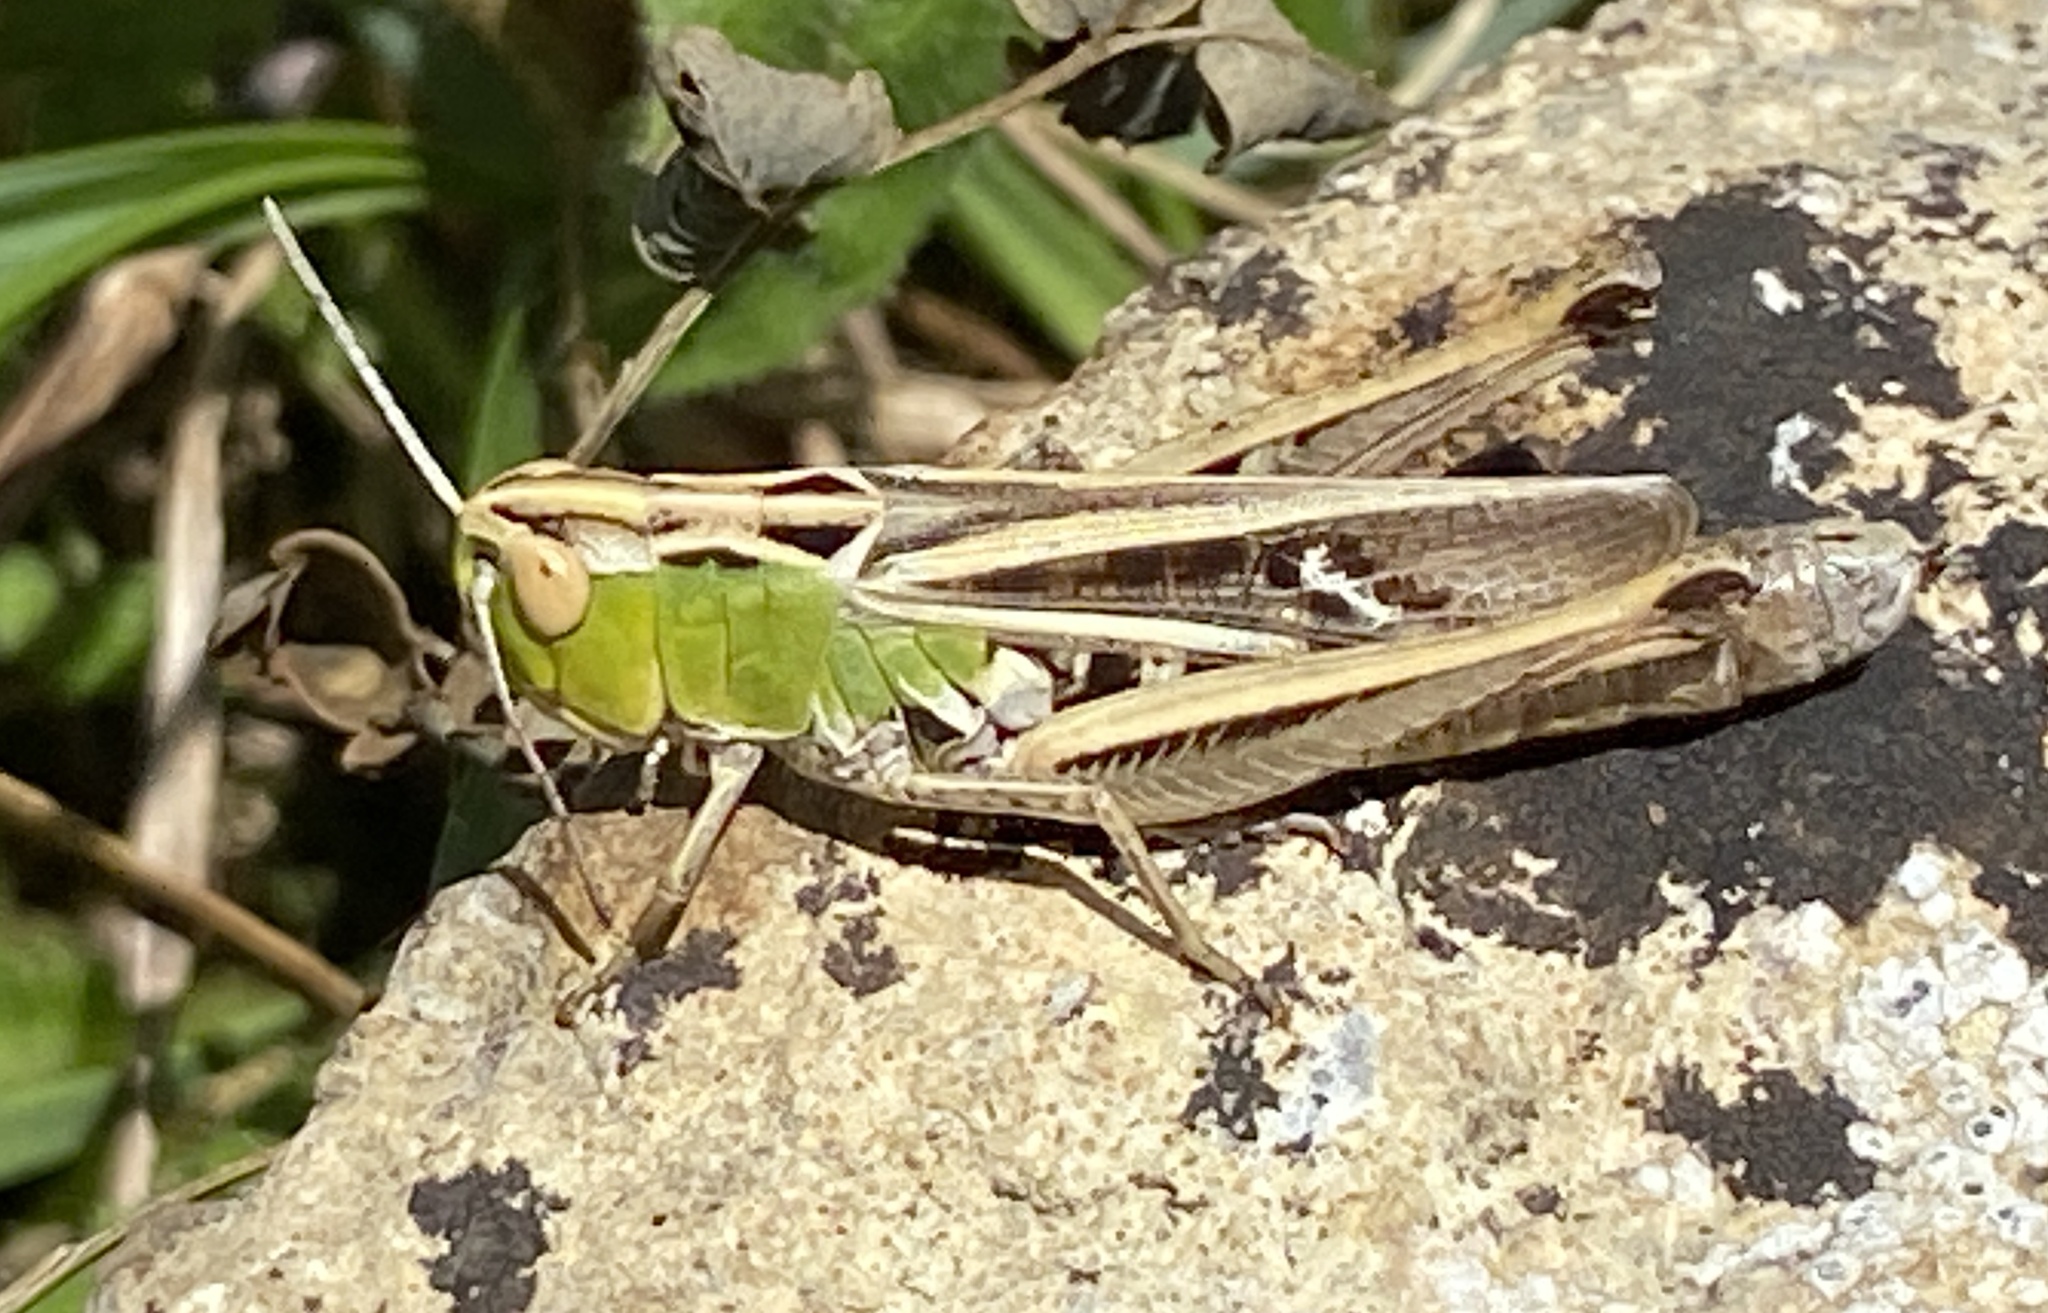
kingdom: Animalia
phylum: Arthropoda
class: Insecta
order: Orthoptera
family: Acrididae
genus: Stenobothrus
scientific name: Stenobothrus lineatus
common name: Stripe-winged grasshopper
